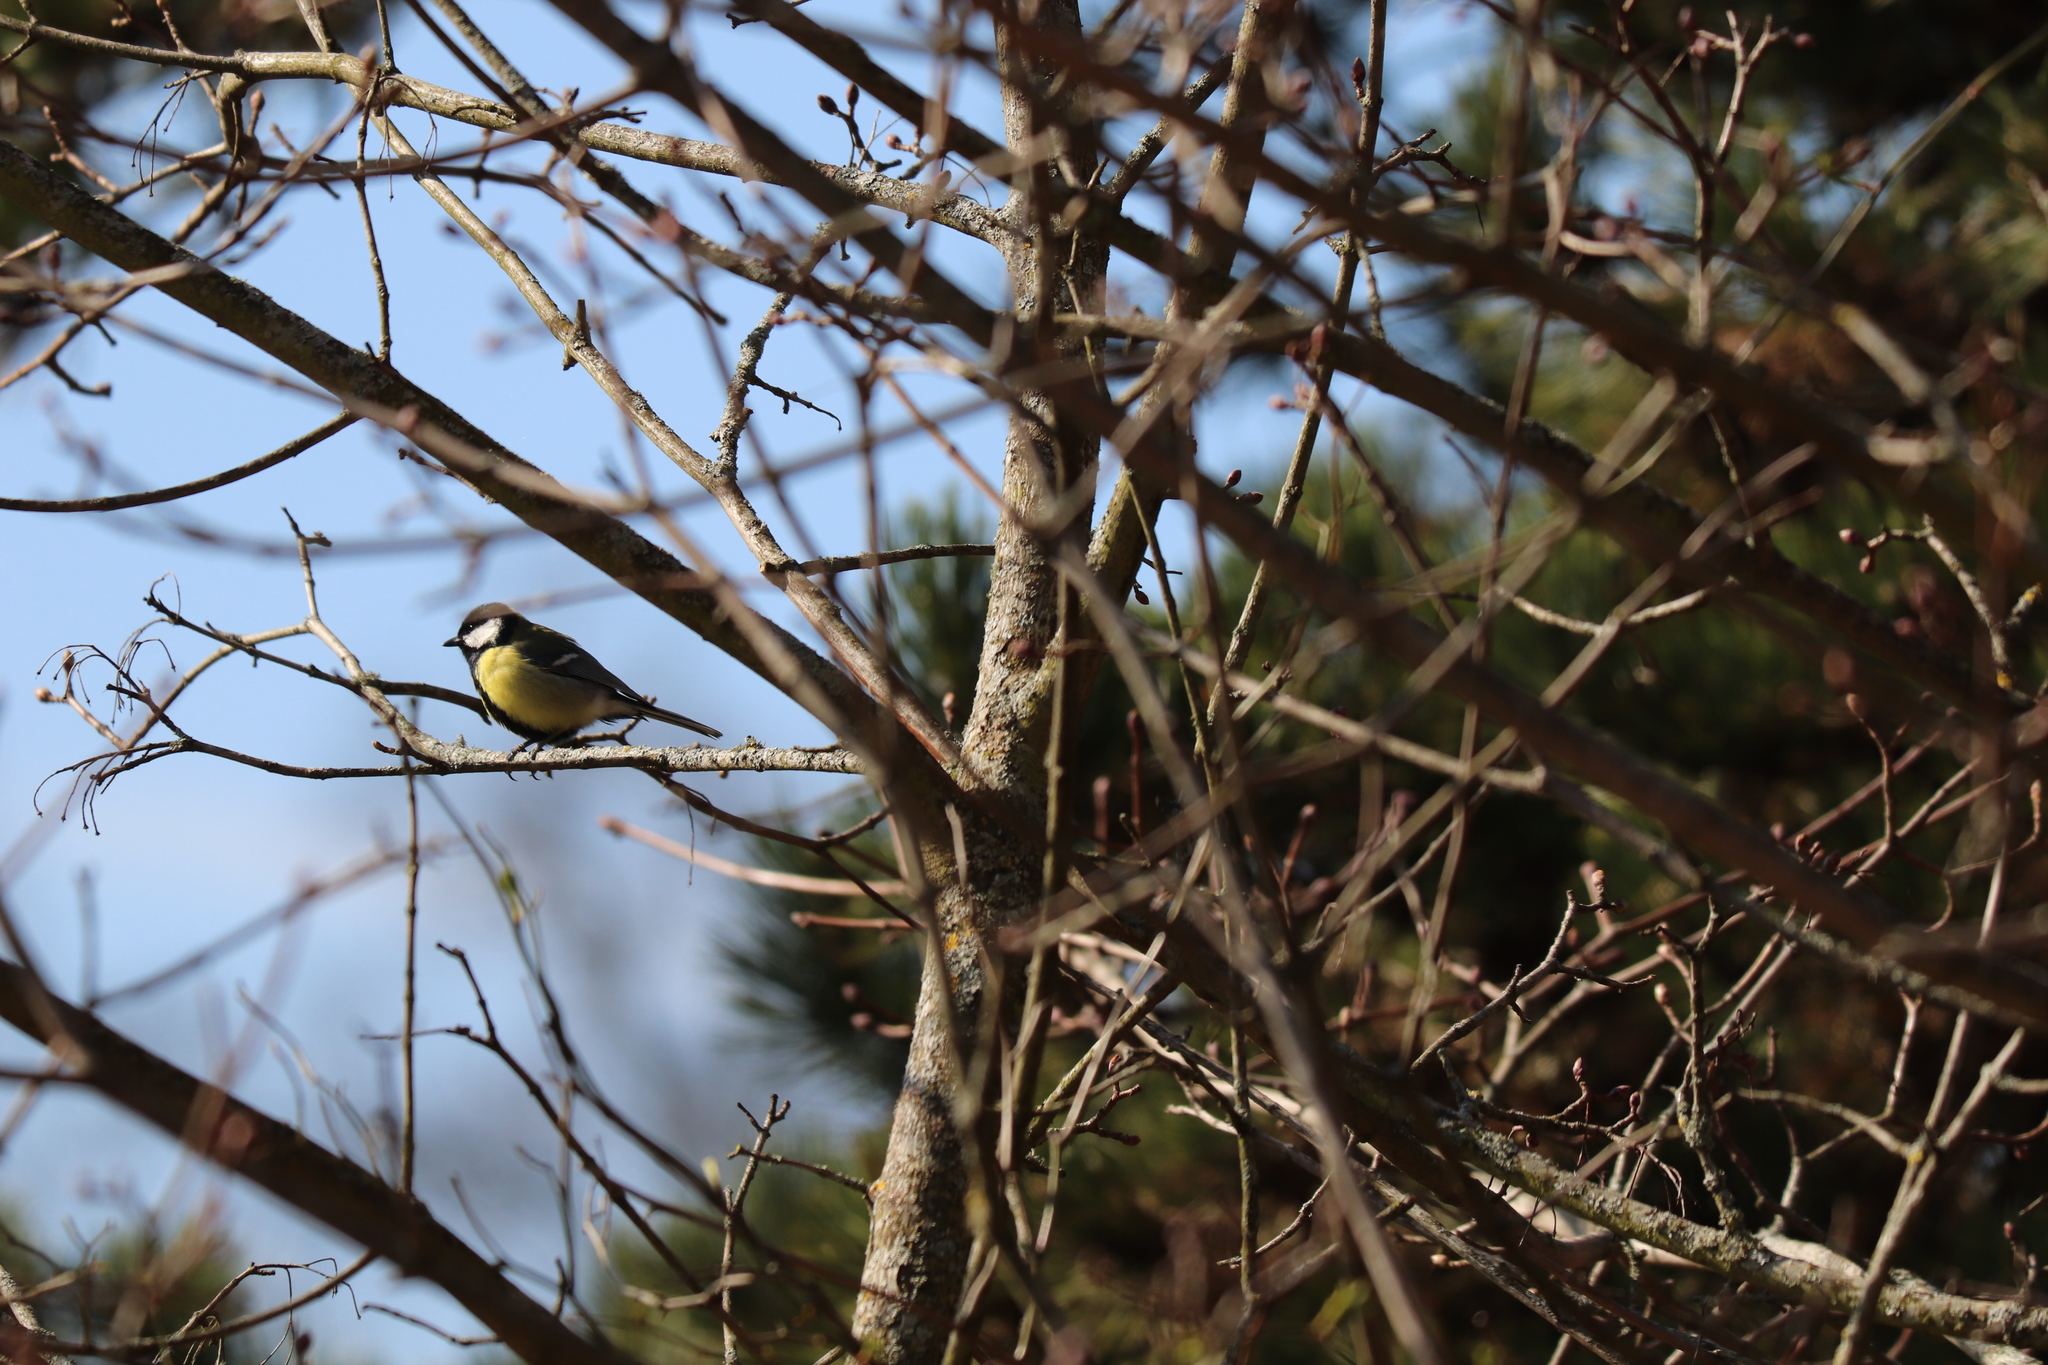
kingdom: Animalia
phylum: Chordata
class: Aves
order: Passeriformes
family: Paridae
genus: Parus
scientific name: Parus major
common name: Great tit
